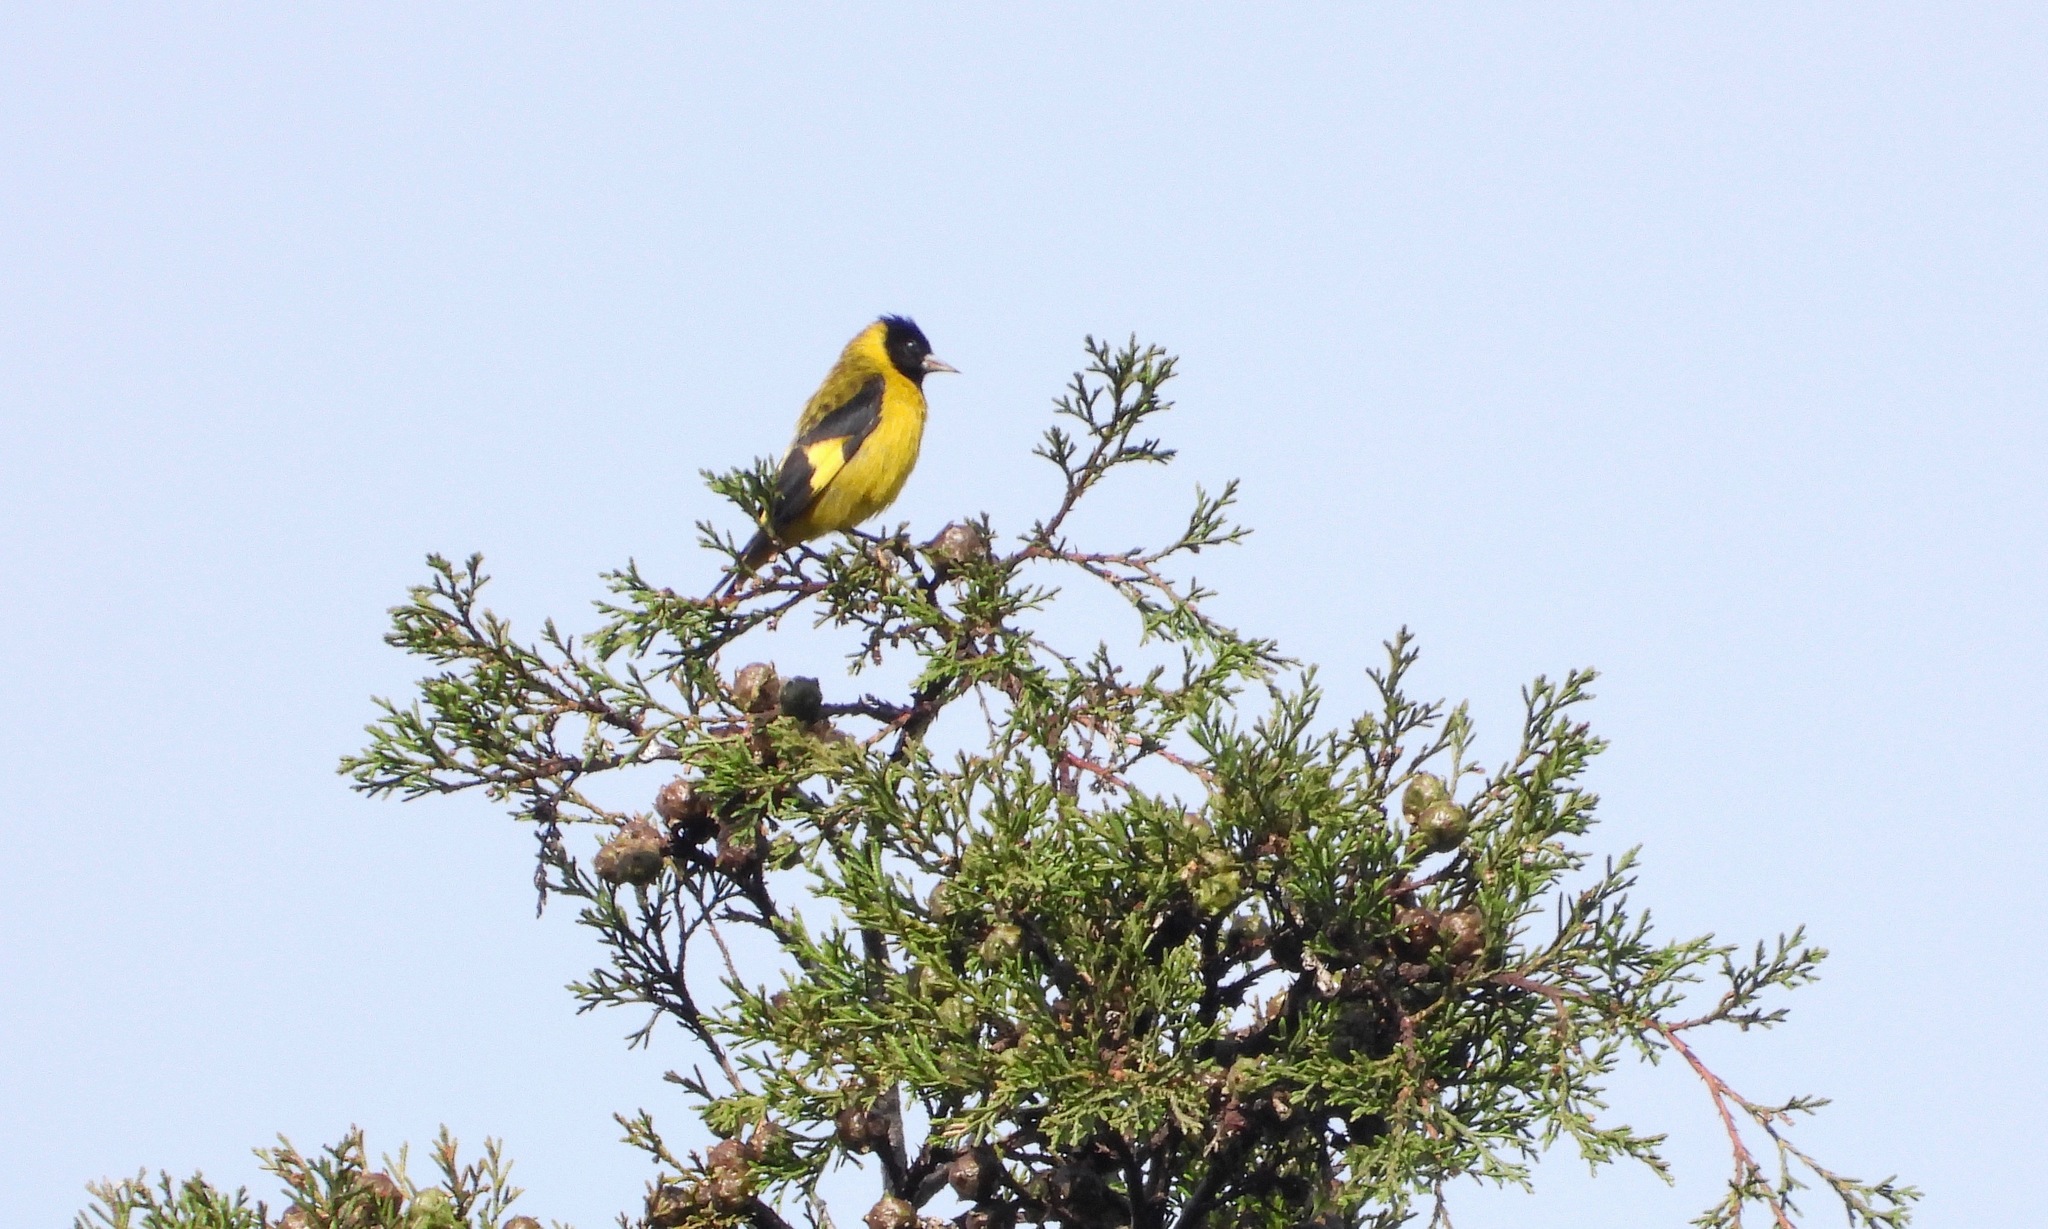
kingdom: Animalia
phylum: Chordata
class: Aves
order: Passeriformes
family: Fringillidae
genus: Spinus
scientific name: Spinus notatus
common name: Black-headed siskin
